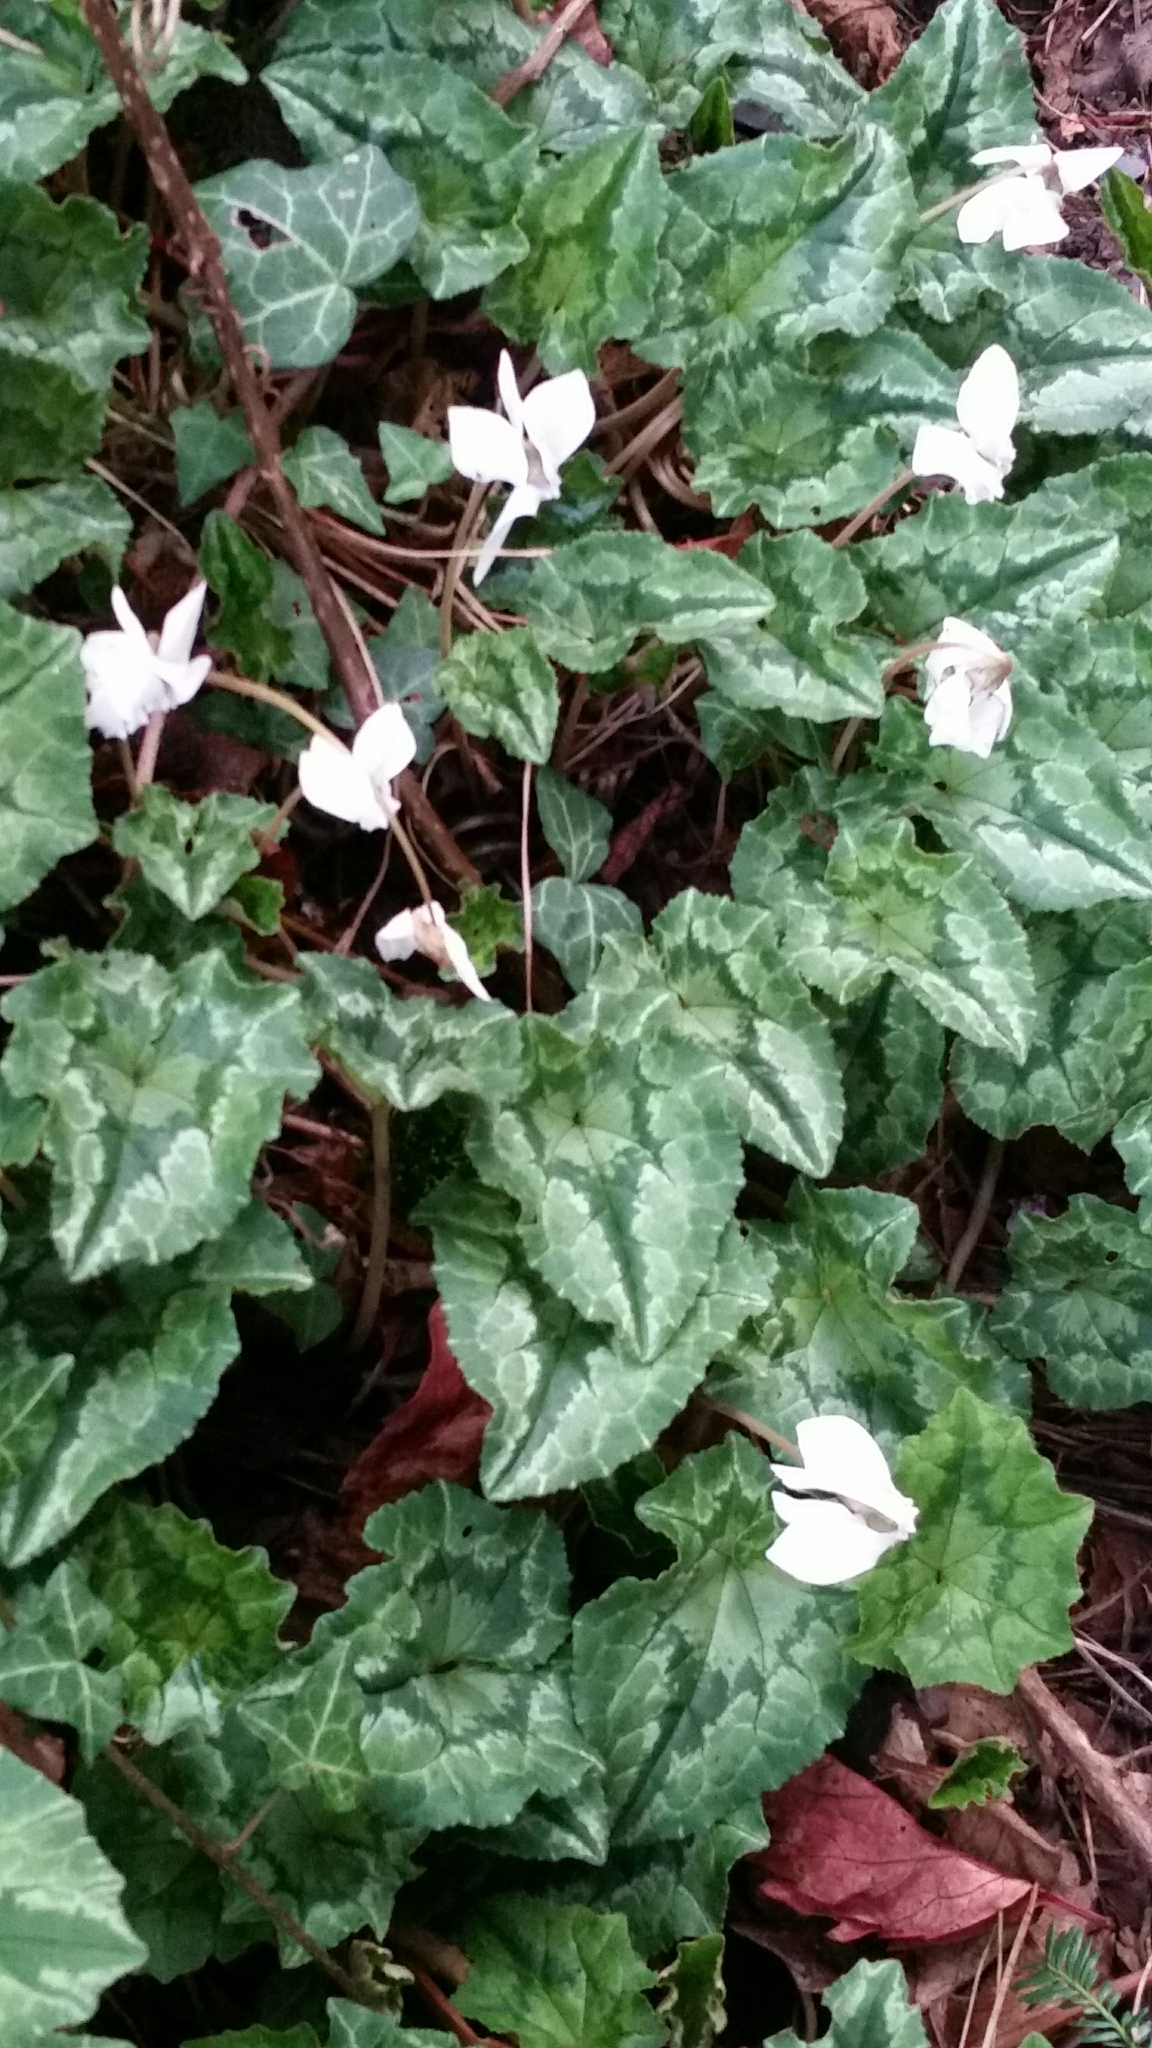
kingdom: Plantae
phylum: Tracheophyta
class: Magnoliopsida
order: Ericales
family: Primulaceae
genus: Cyclamen
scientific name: Cyclamen hederifolium
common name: Sowbread
